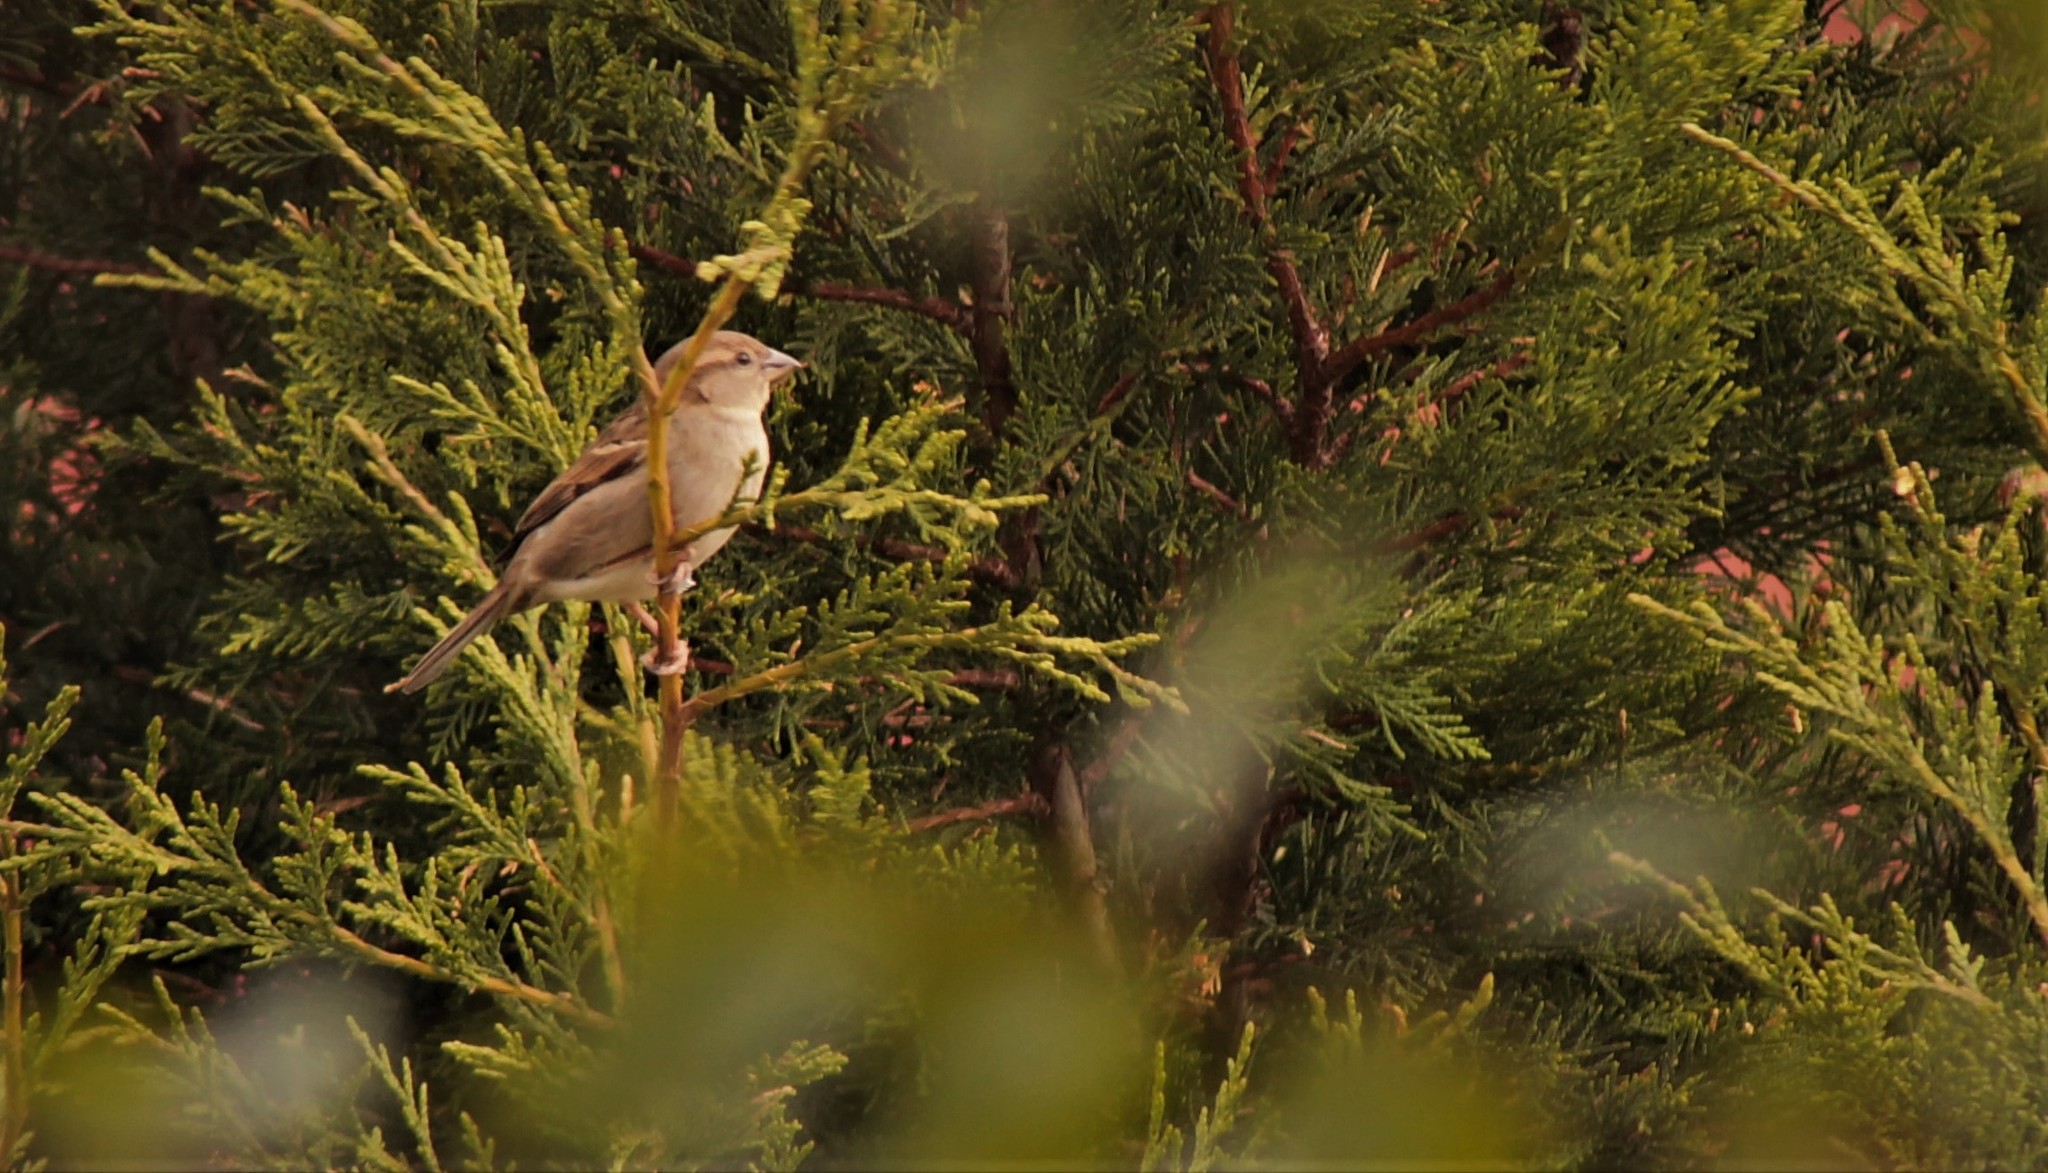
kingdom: Animalia
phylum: Chordata
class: Aves
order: Passeriformes
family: Passeridae
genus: Passer
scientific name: Passer domesticus
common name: House sparrow
